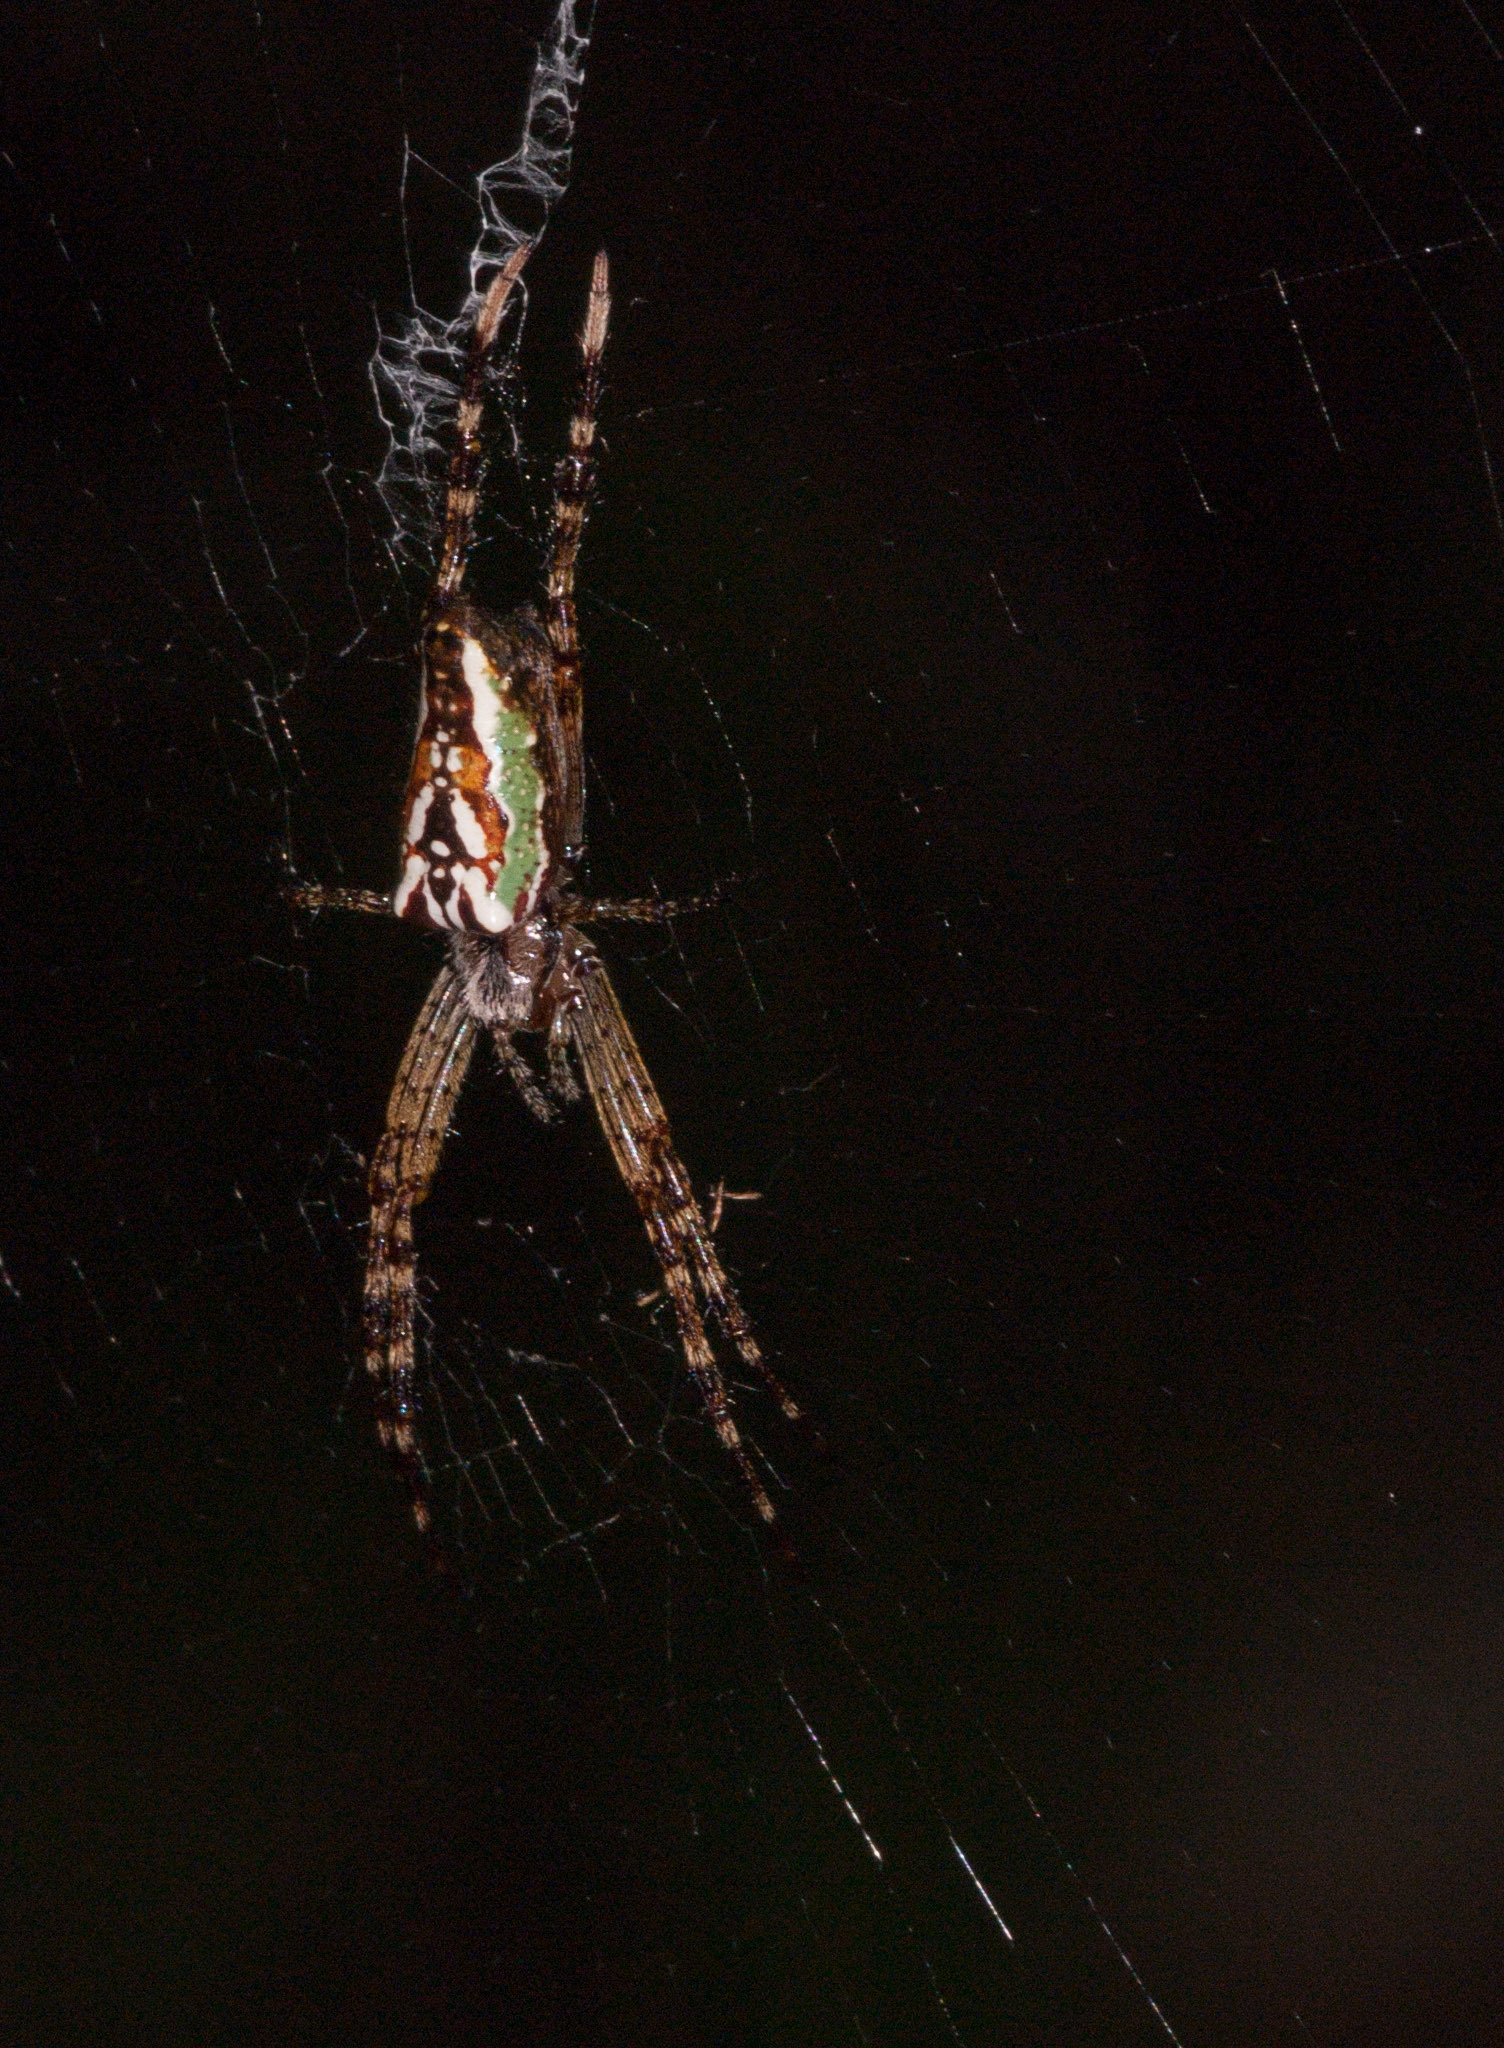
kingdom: Animalia
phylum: Arthropoda
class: Arachnida
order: Araneae
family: Araneidae
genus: Plebs
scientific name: Plebs bradleyi
